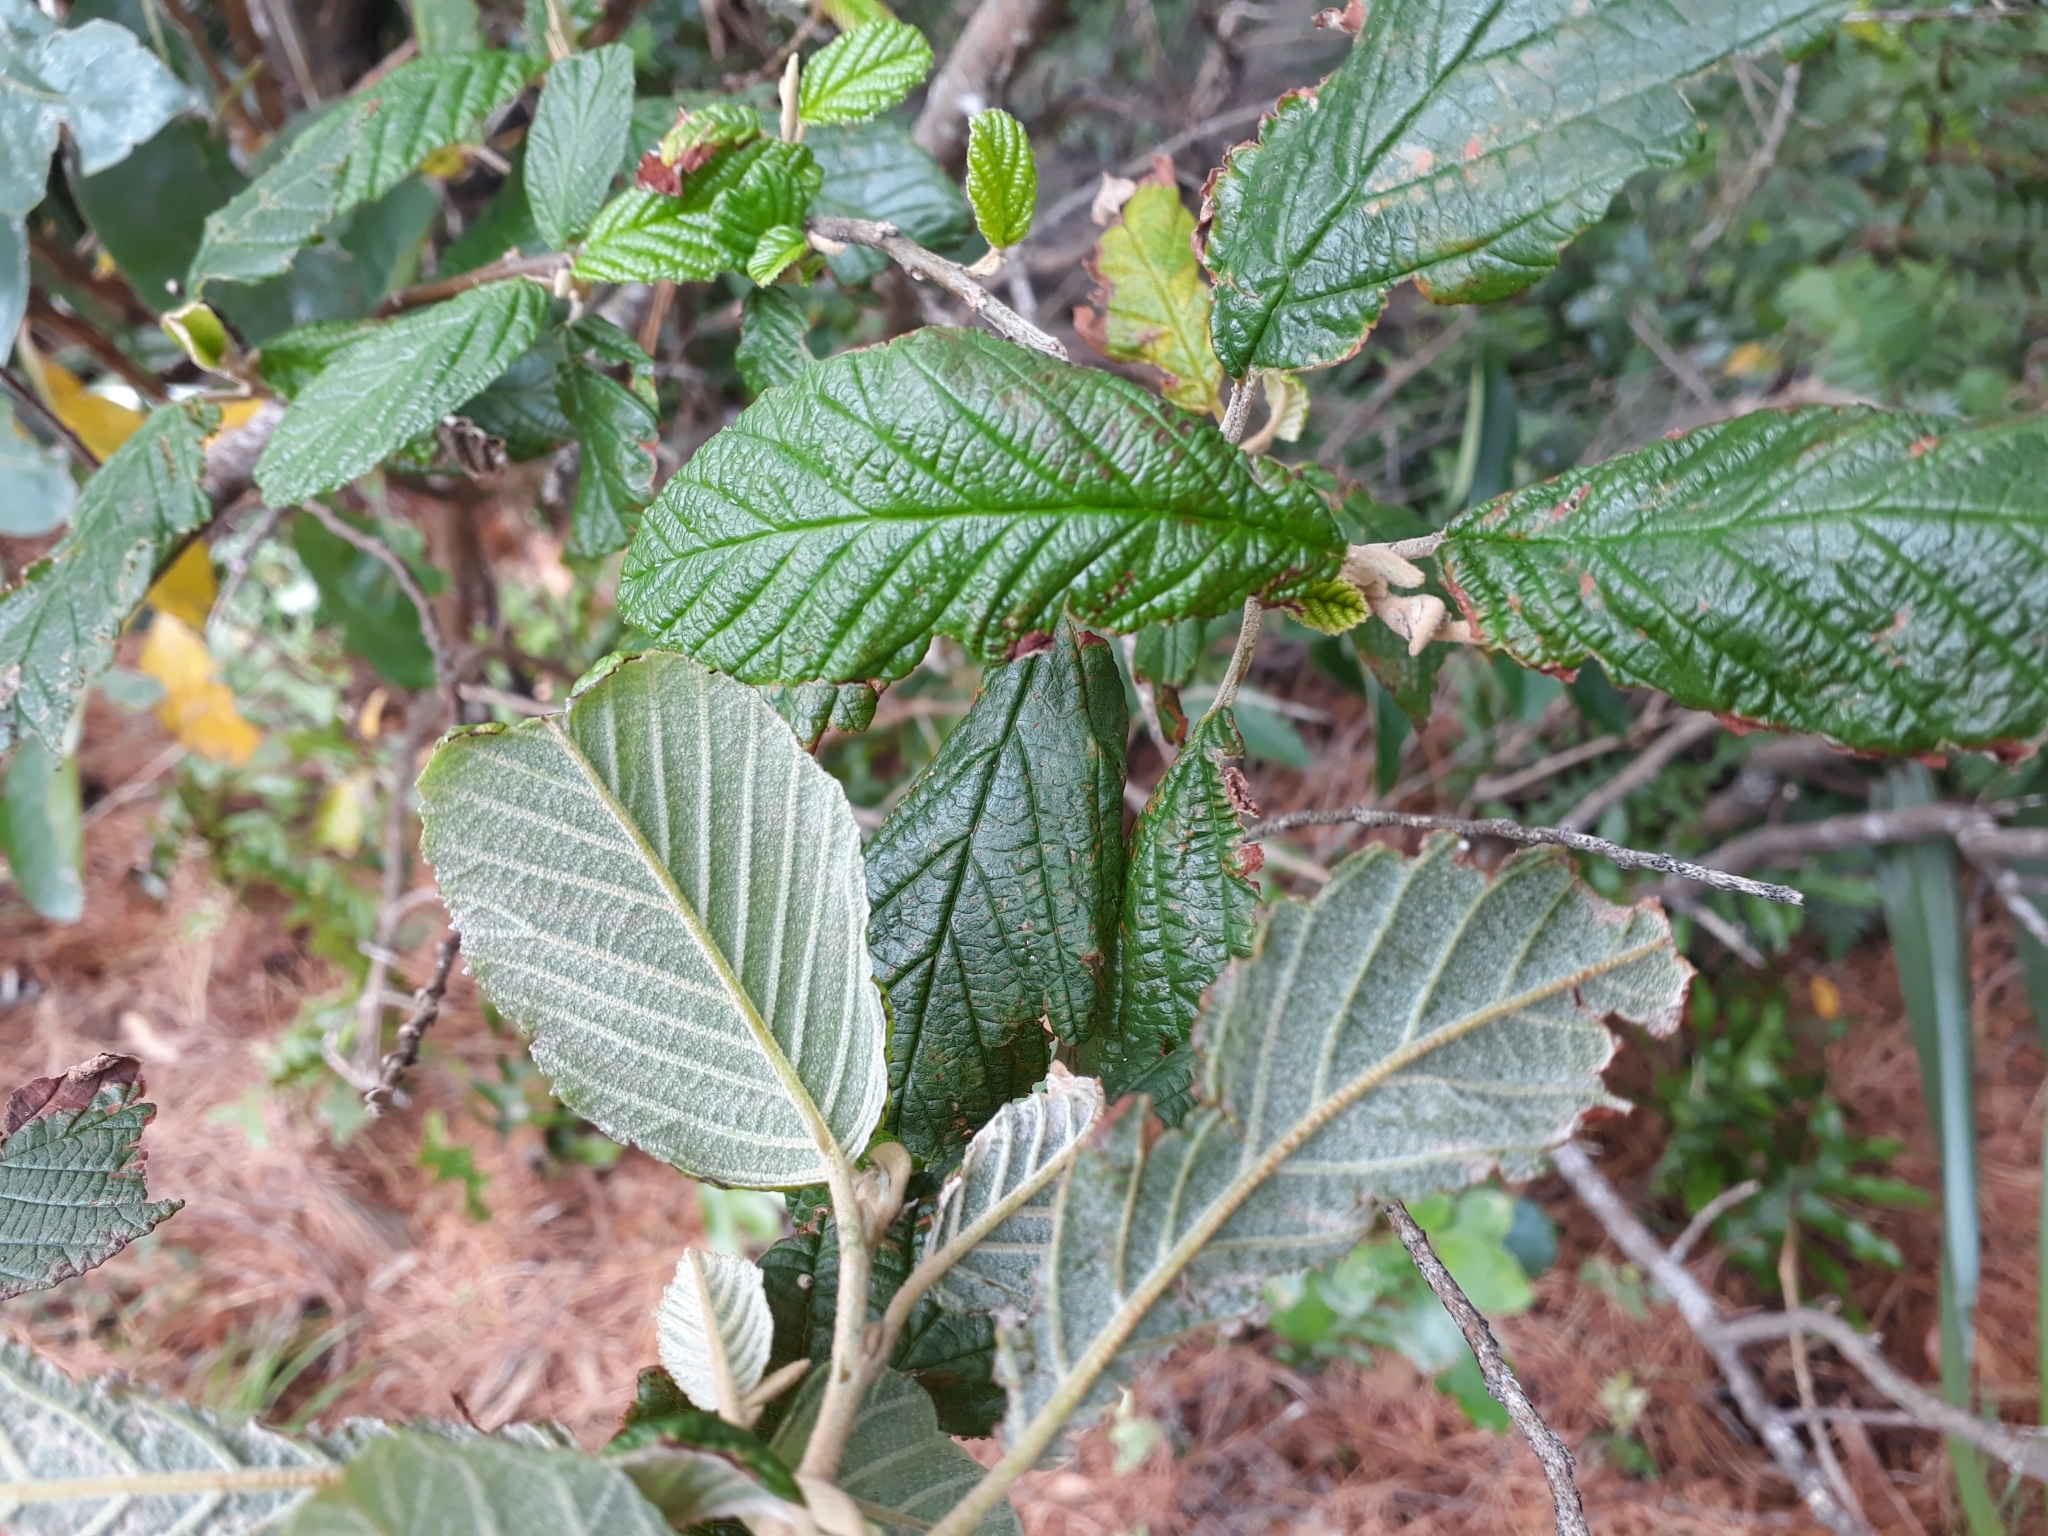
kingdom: Plantae
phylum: Tracheophyta
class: Magnoliopsida
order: Rosales
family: Rhamnaceae
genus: Pomaderris
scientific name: Pomaderris aspera
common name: Hazel pomaderris
